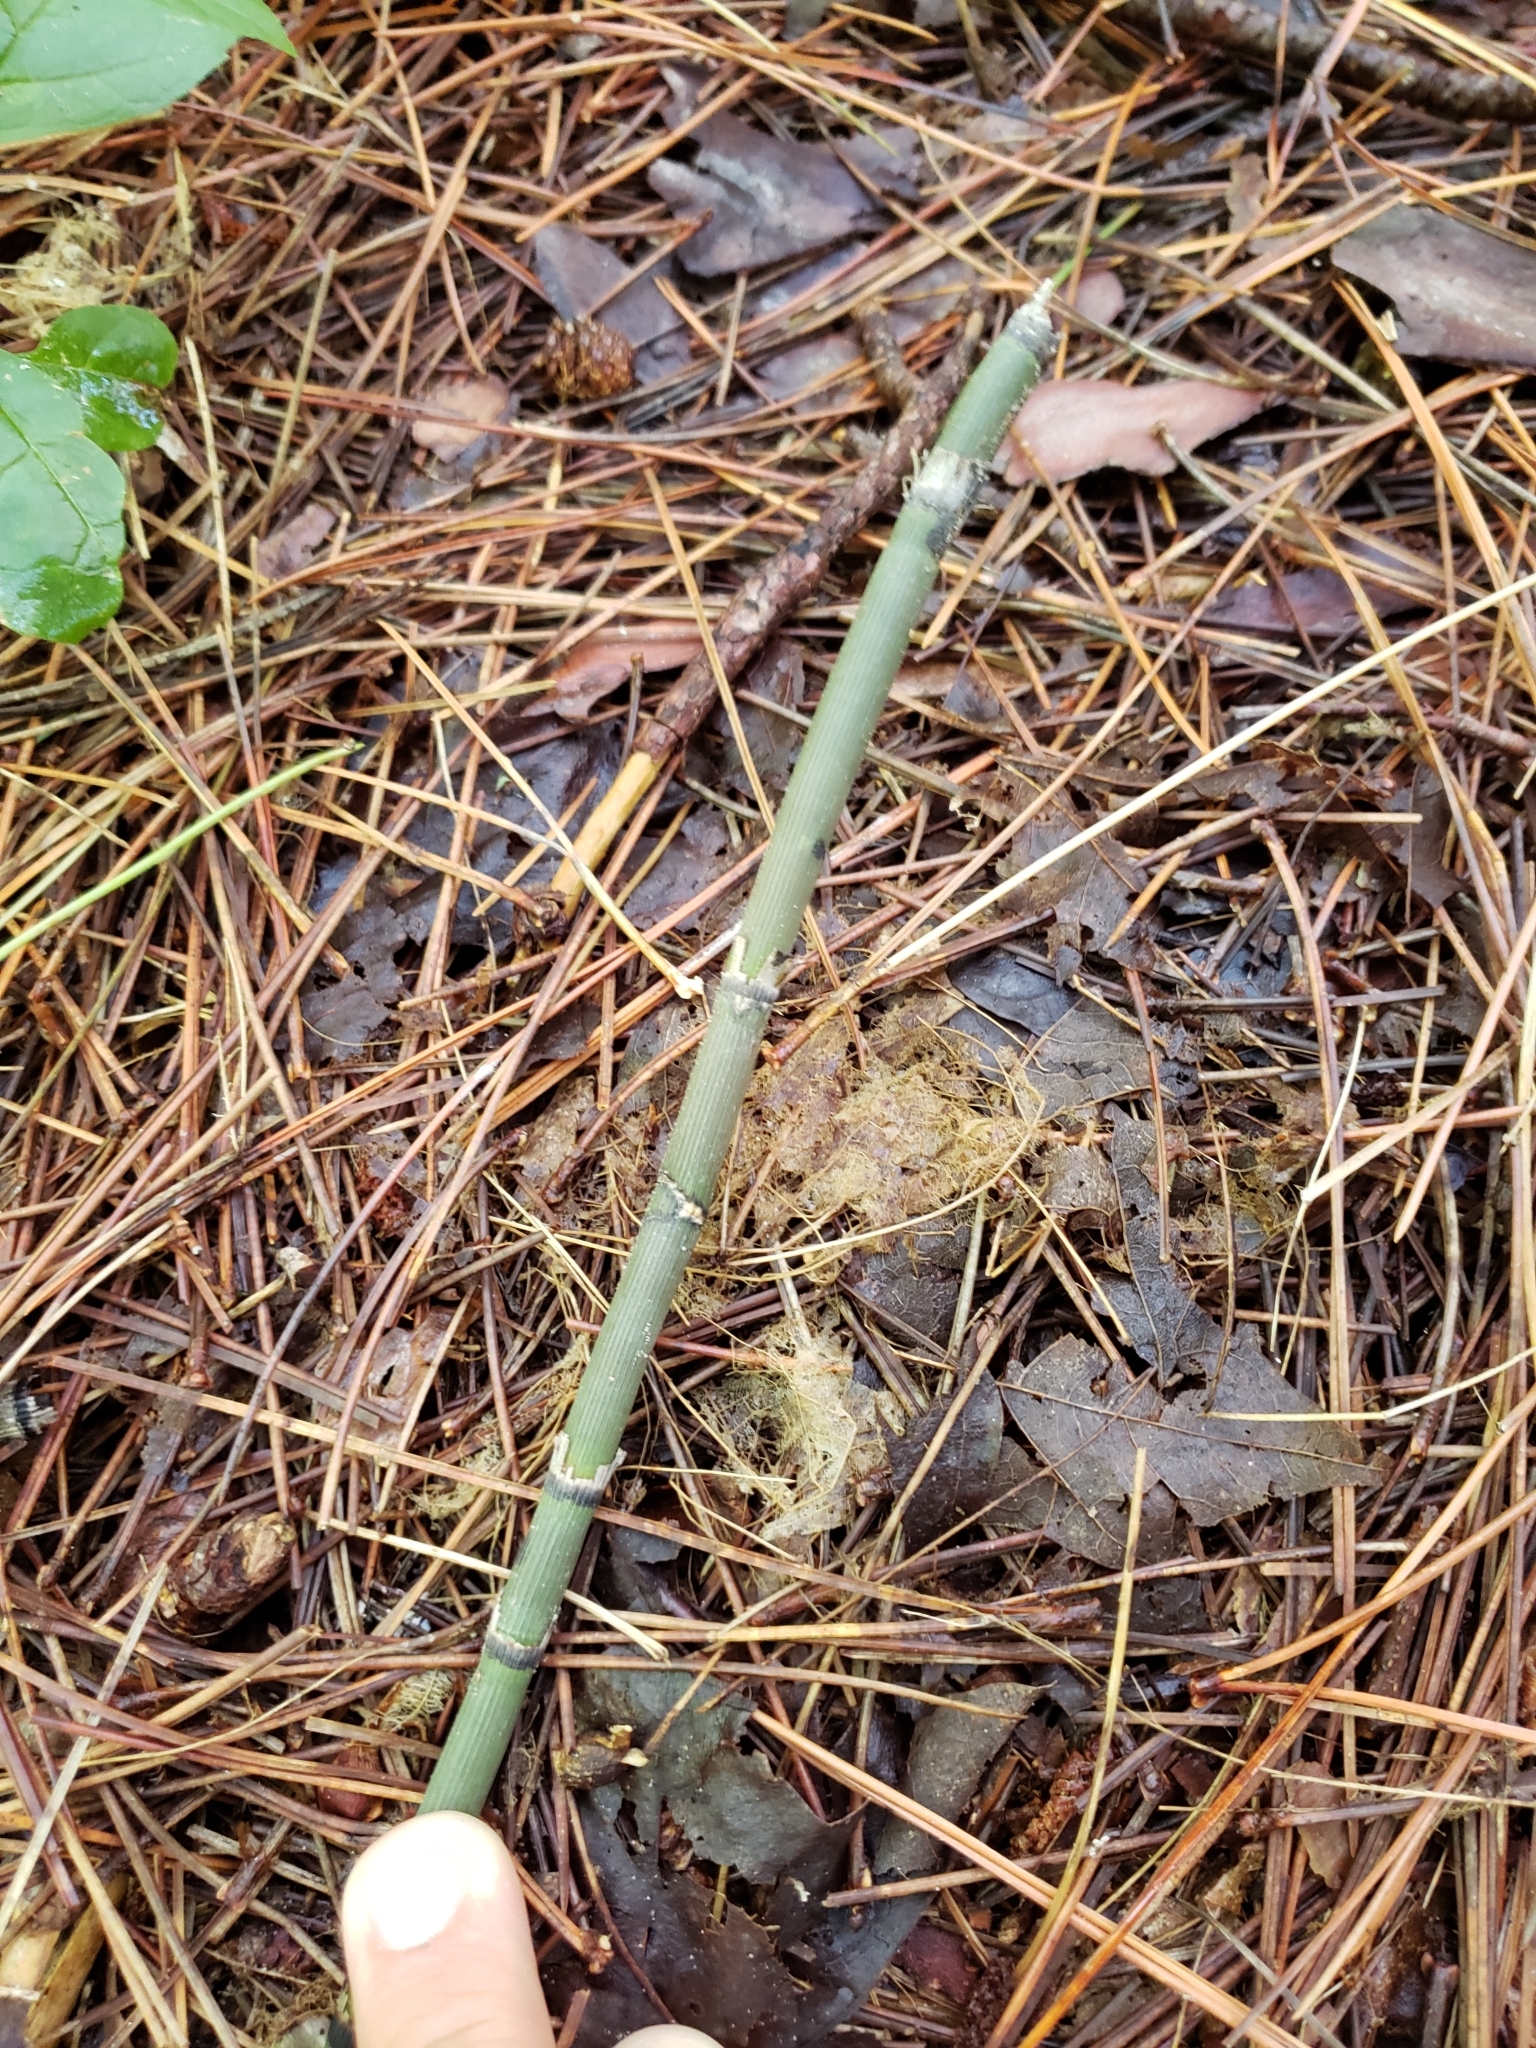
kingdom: Plantae
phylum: Tracheophyta
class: Polypodiopsida
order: Equisetales
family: Equisetaceae
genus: Equisetum
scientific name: Equisetum hyemale
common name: Rough horsetail
